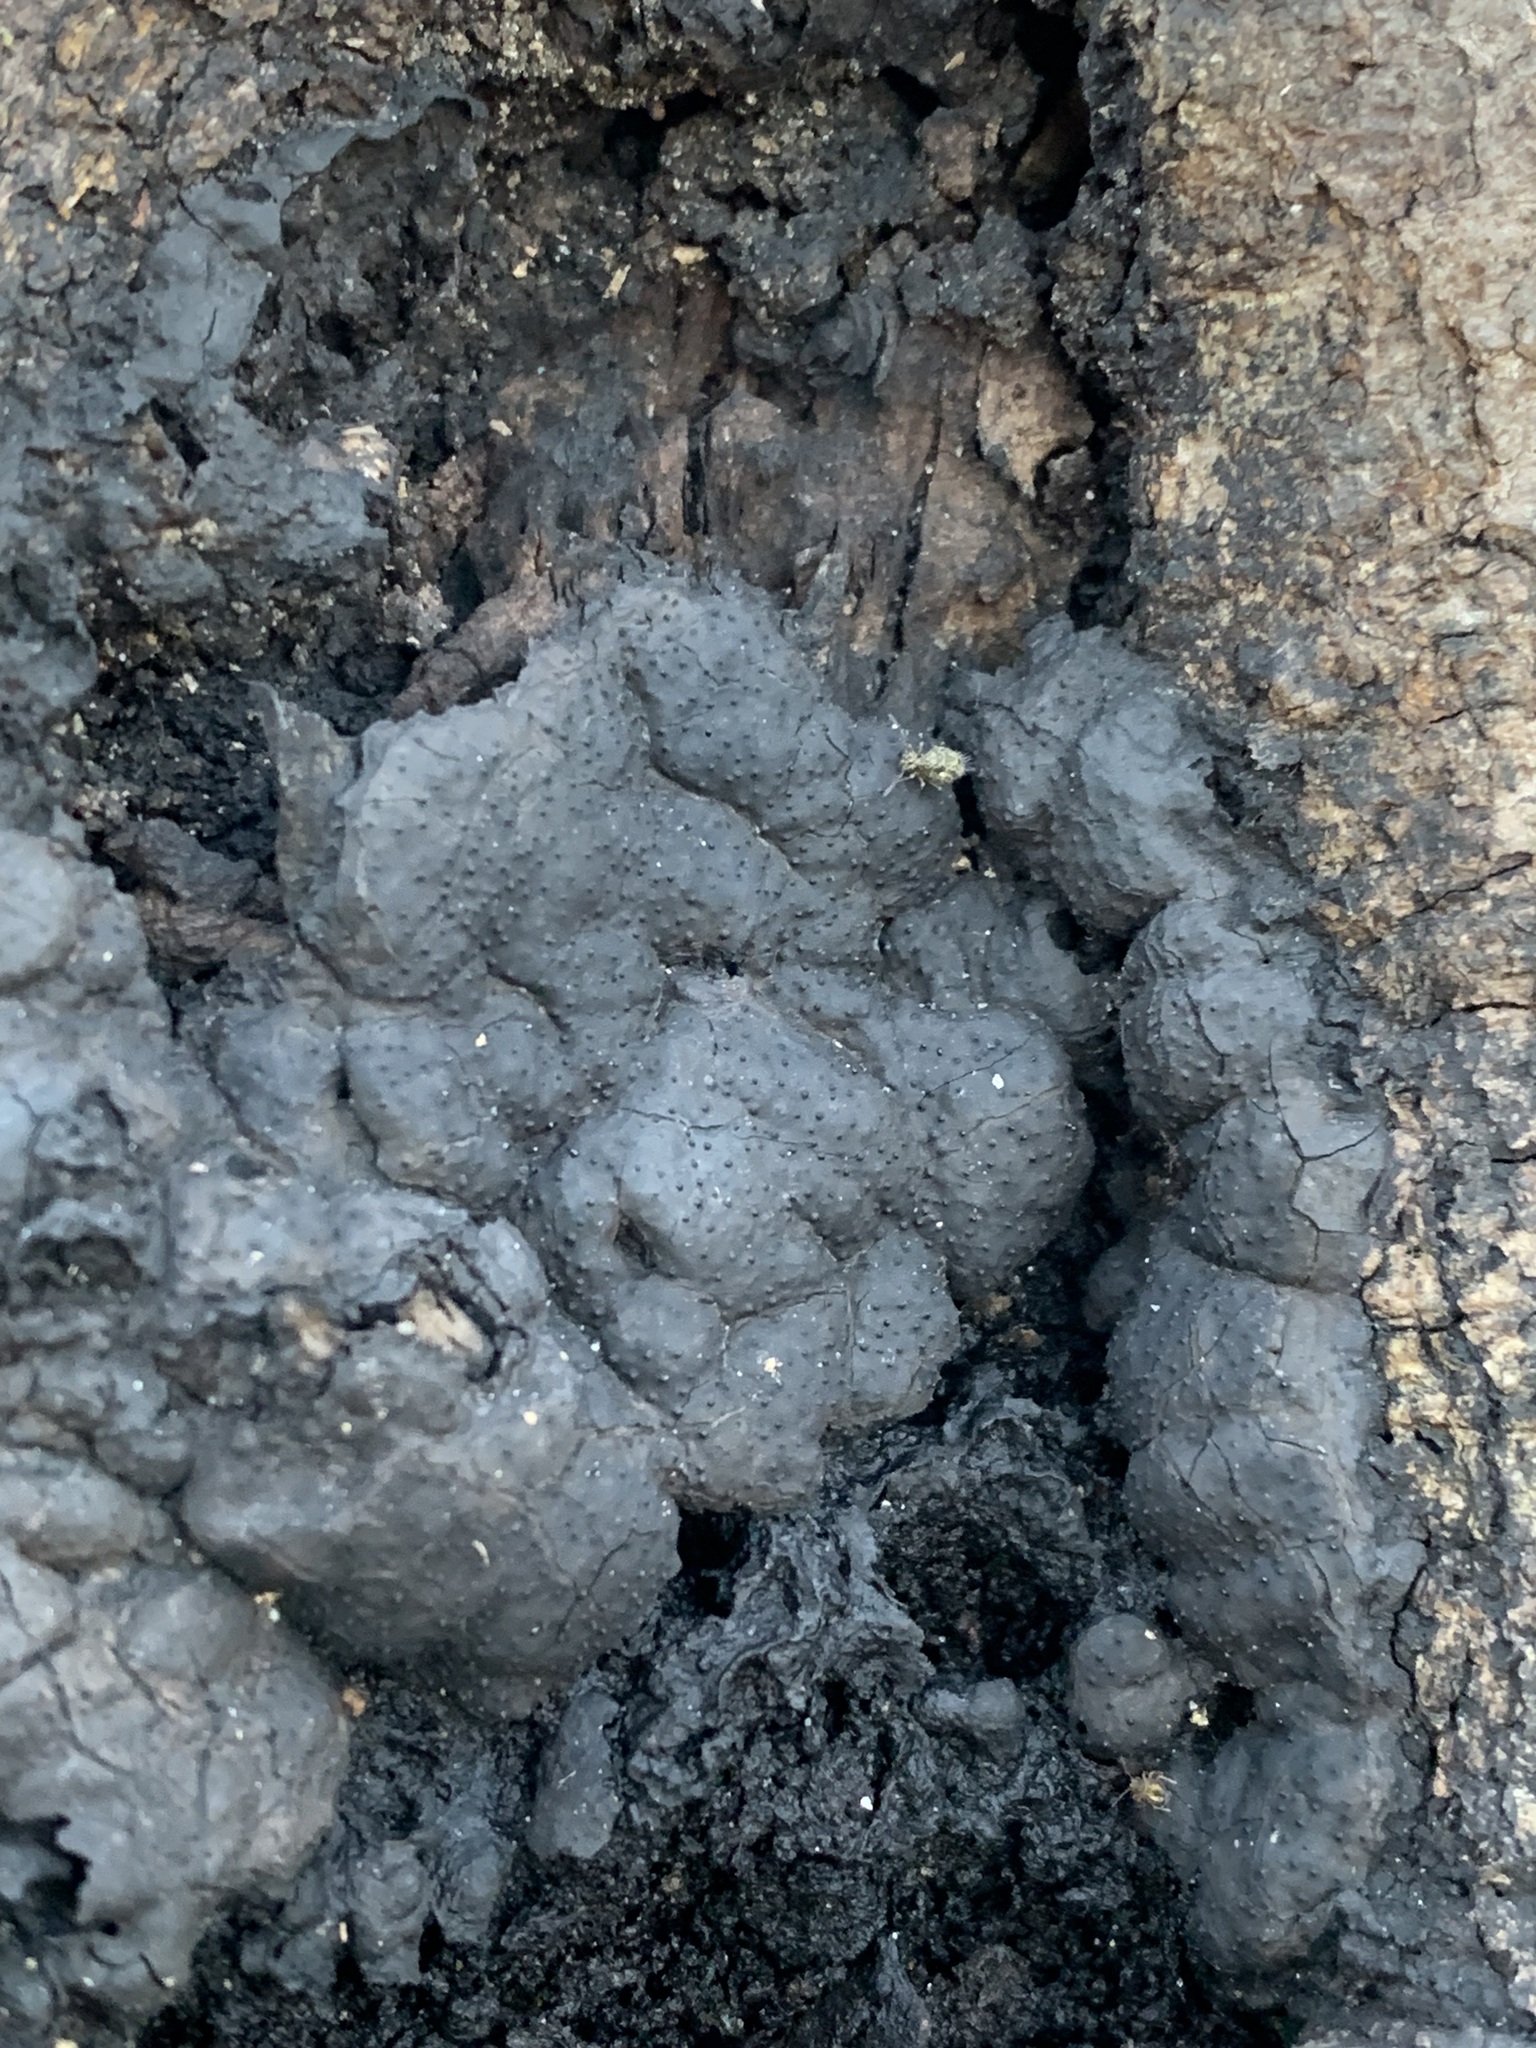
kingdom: Fungi
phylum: Ascomycota
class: Sordariomycetes
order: Xylariales
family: Xylariaceae
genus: Kretzschmaria
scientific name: Kretzschmaria hedjaroudei
